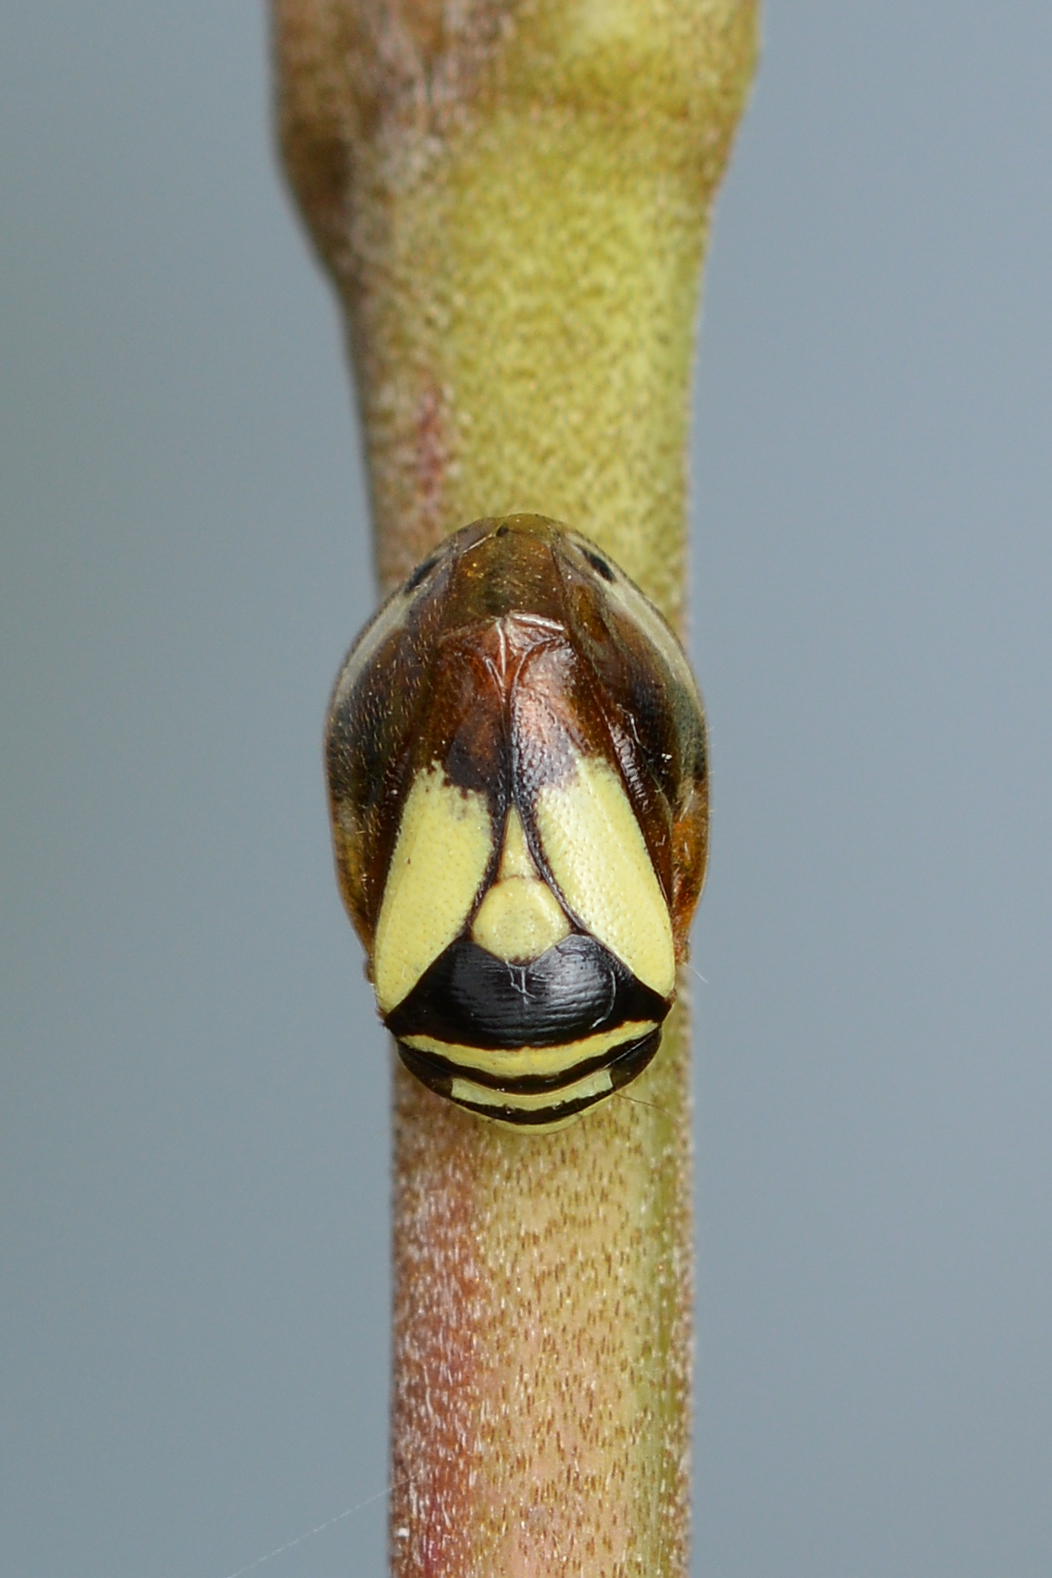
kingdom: Animalia
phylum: Arthropoda
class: Insecta
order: Hemiptera
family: Clastopteridae
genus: Clastoptera
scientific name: Clastoptera proteus
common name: Dogwood spittlebug
